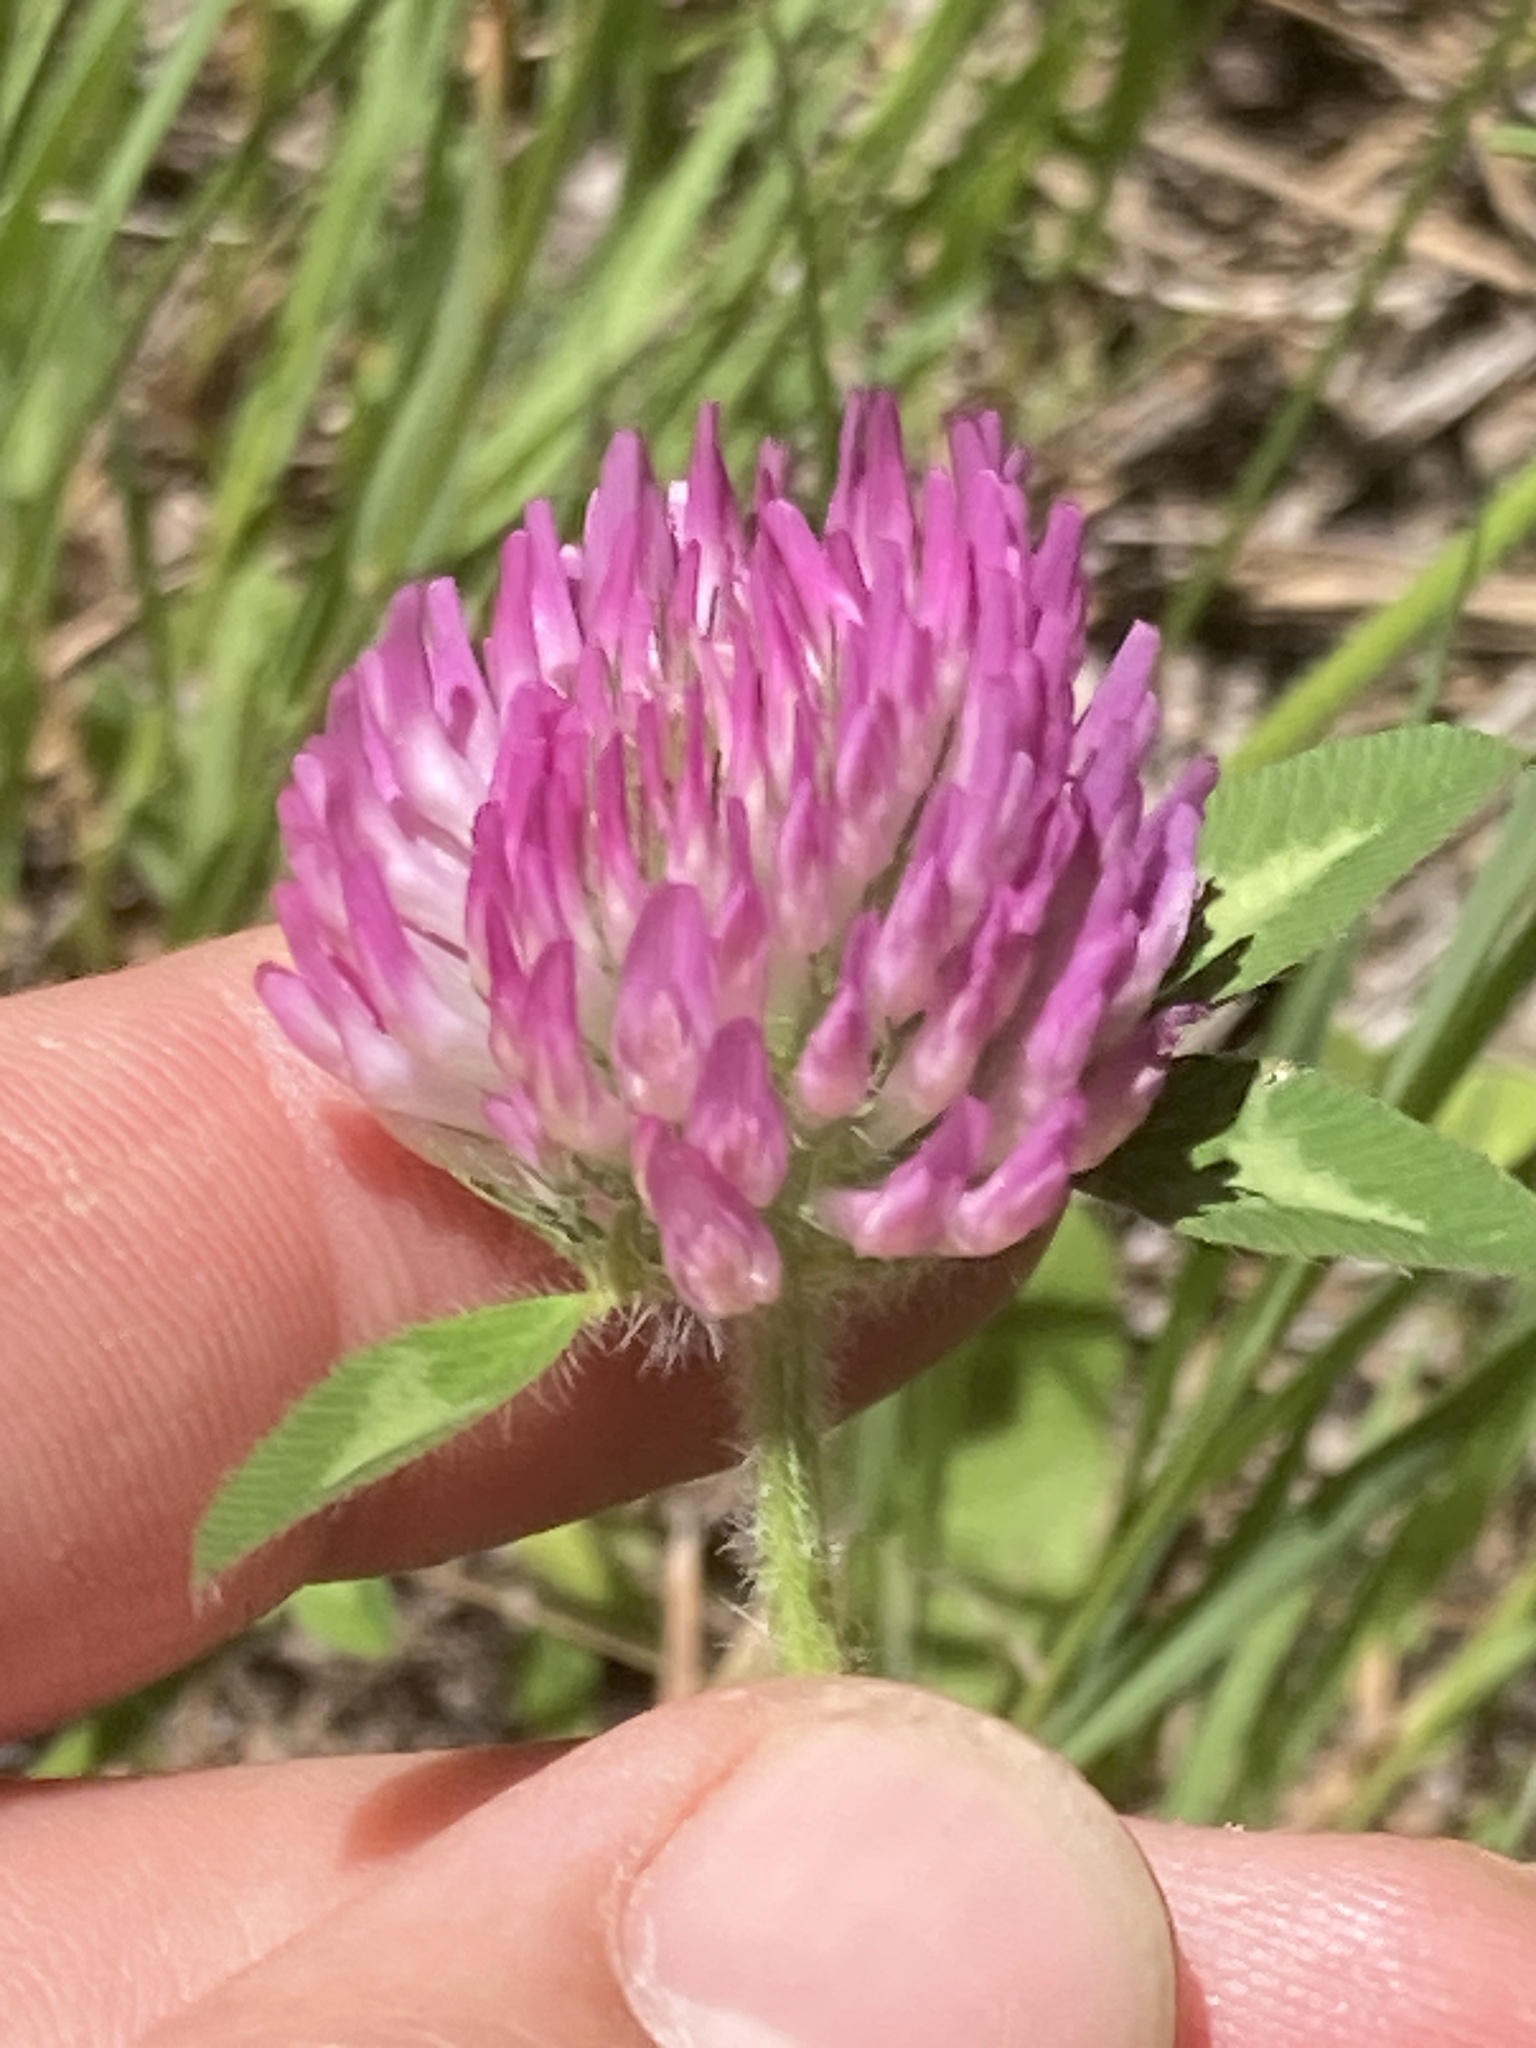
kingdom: Plantae
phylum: Tracheophyta
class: Magnoliopsida
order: Fabales
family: Fabaceae
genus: Trifolium
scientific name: Trifolium pratense
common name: Red clover
